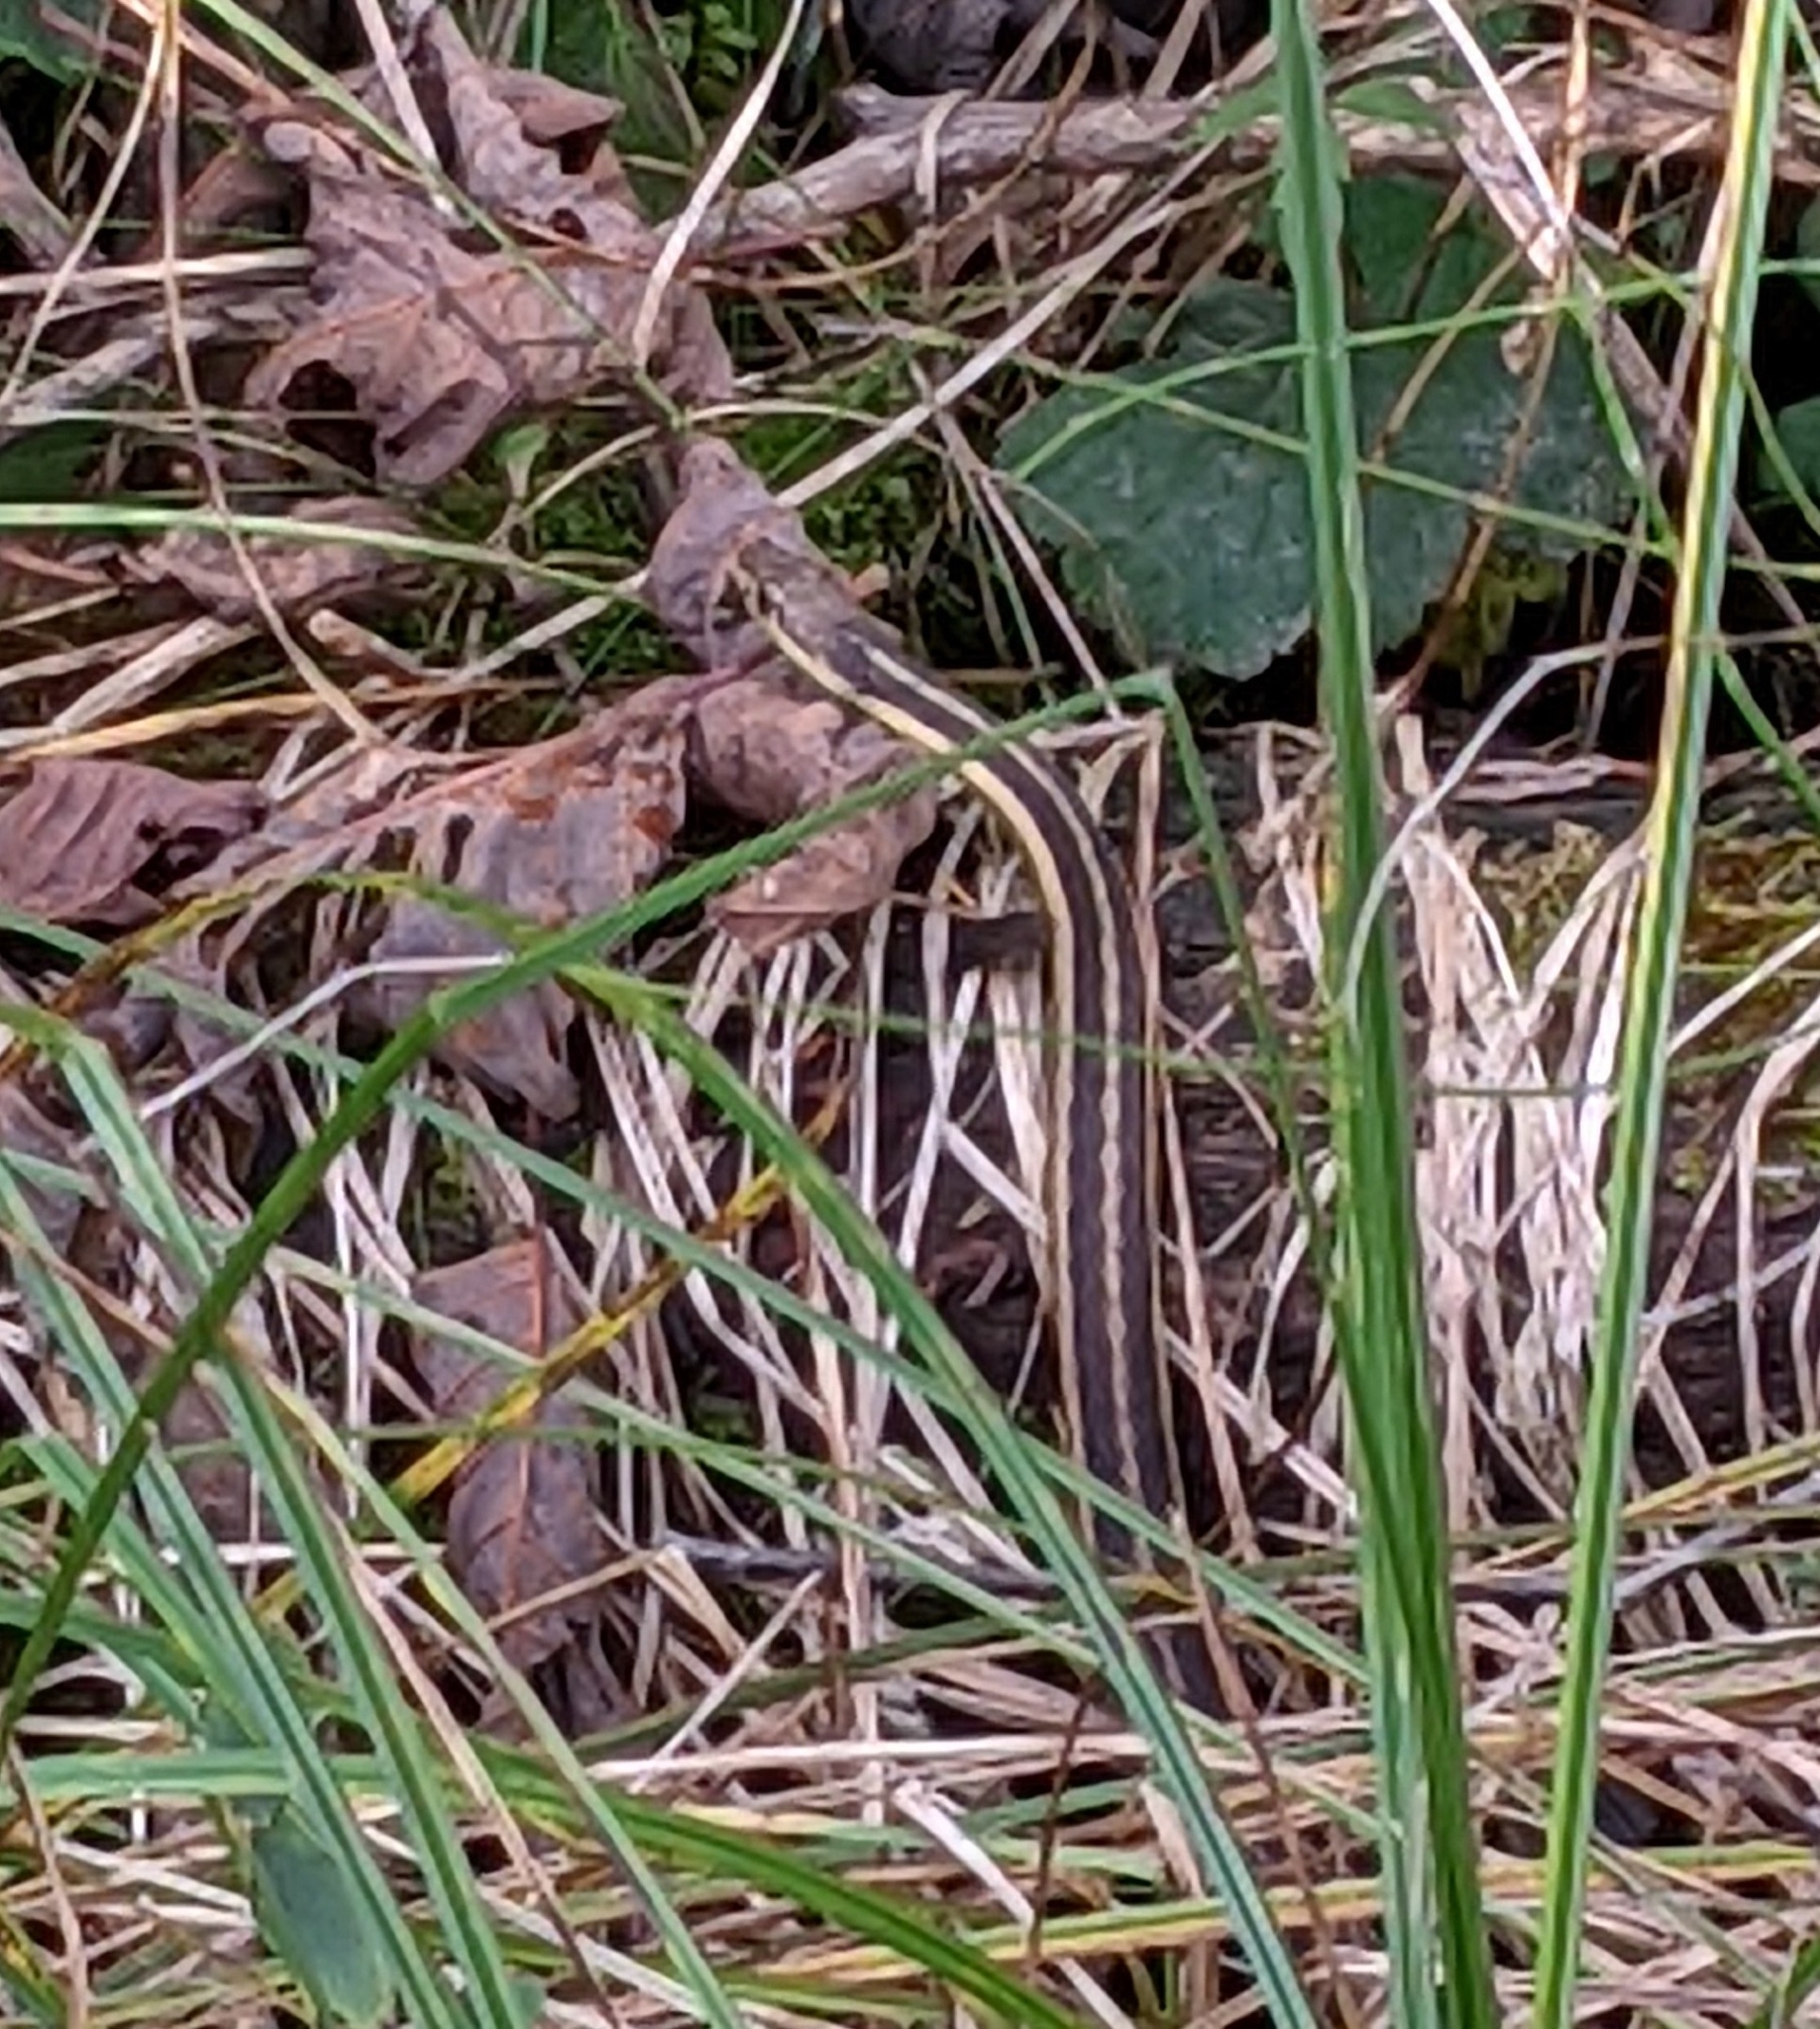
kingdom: Animalia
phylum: Chordata
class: Squamata
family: Colubridae
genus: Thamnophis
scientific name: Thamnophis sirtalis
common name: Common garter snake
